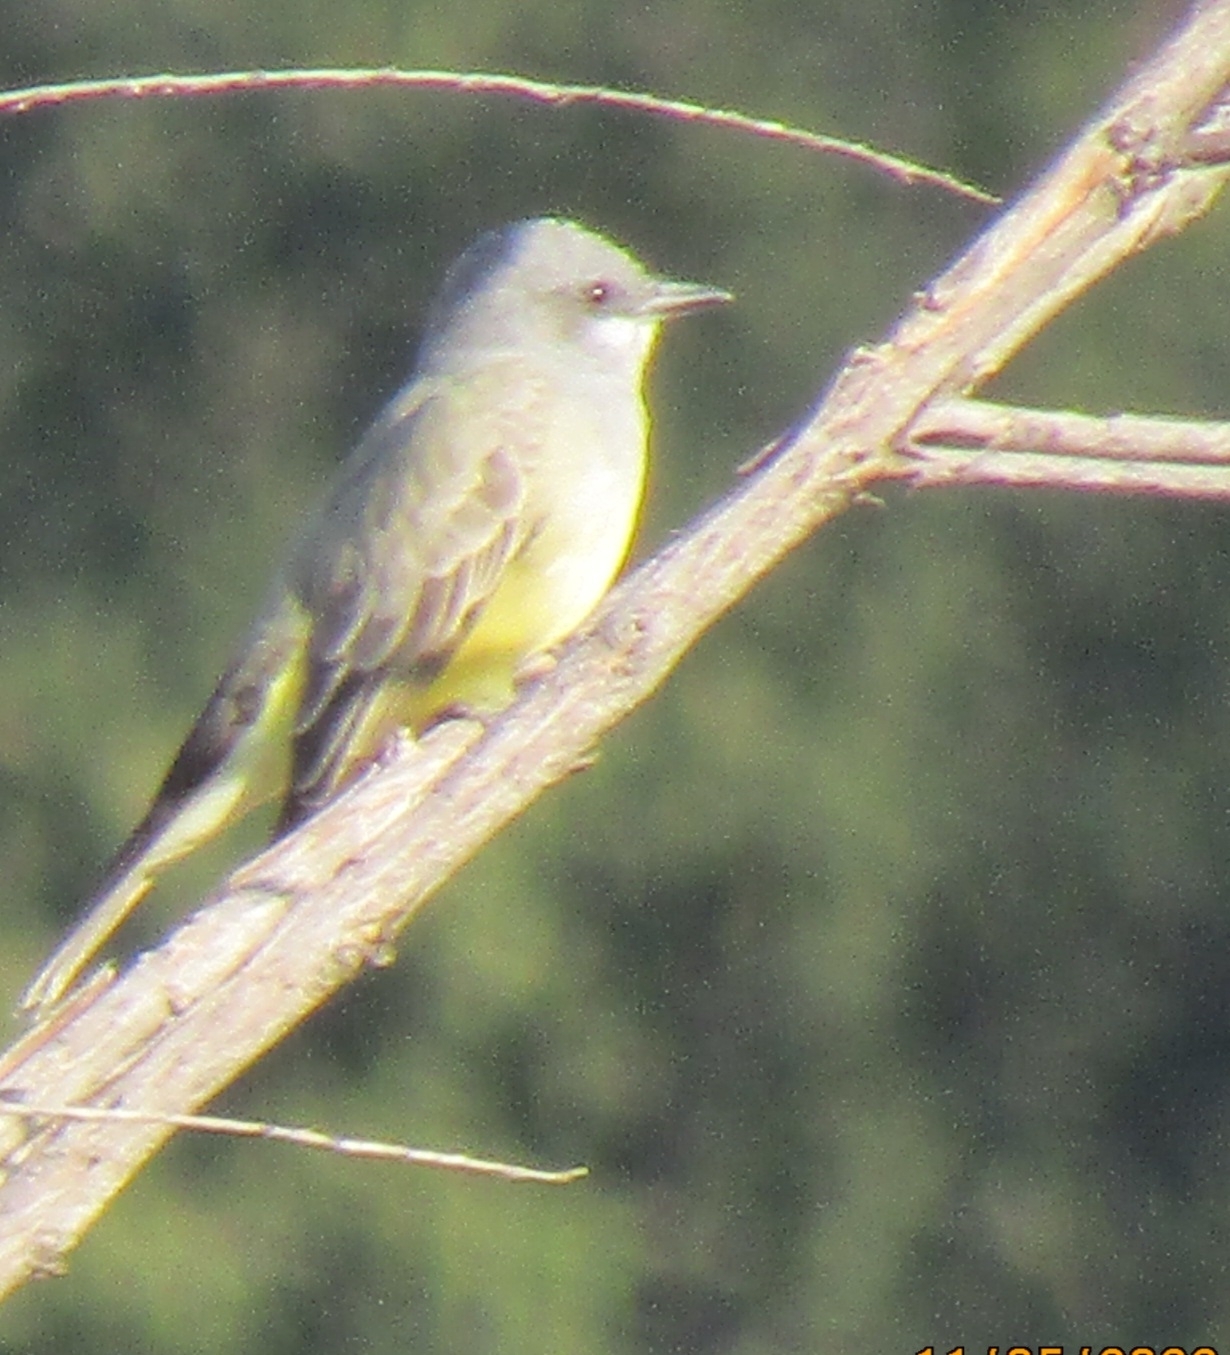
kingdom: Animalia
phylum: Chordata
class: Aves
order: Passeriformes
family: Tyrannidae
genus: Tyrannus
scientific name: Tyrannus vociferans
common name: Cassin's kingbird
